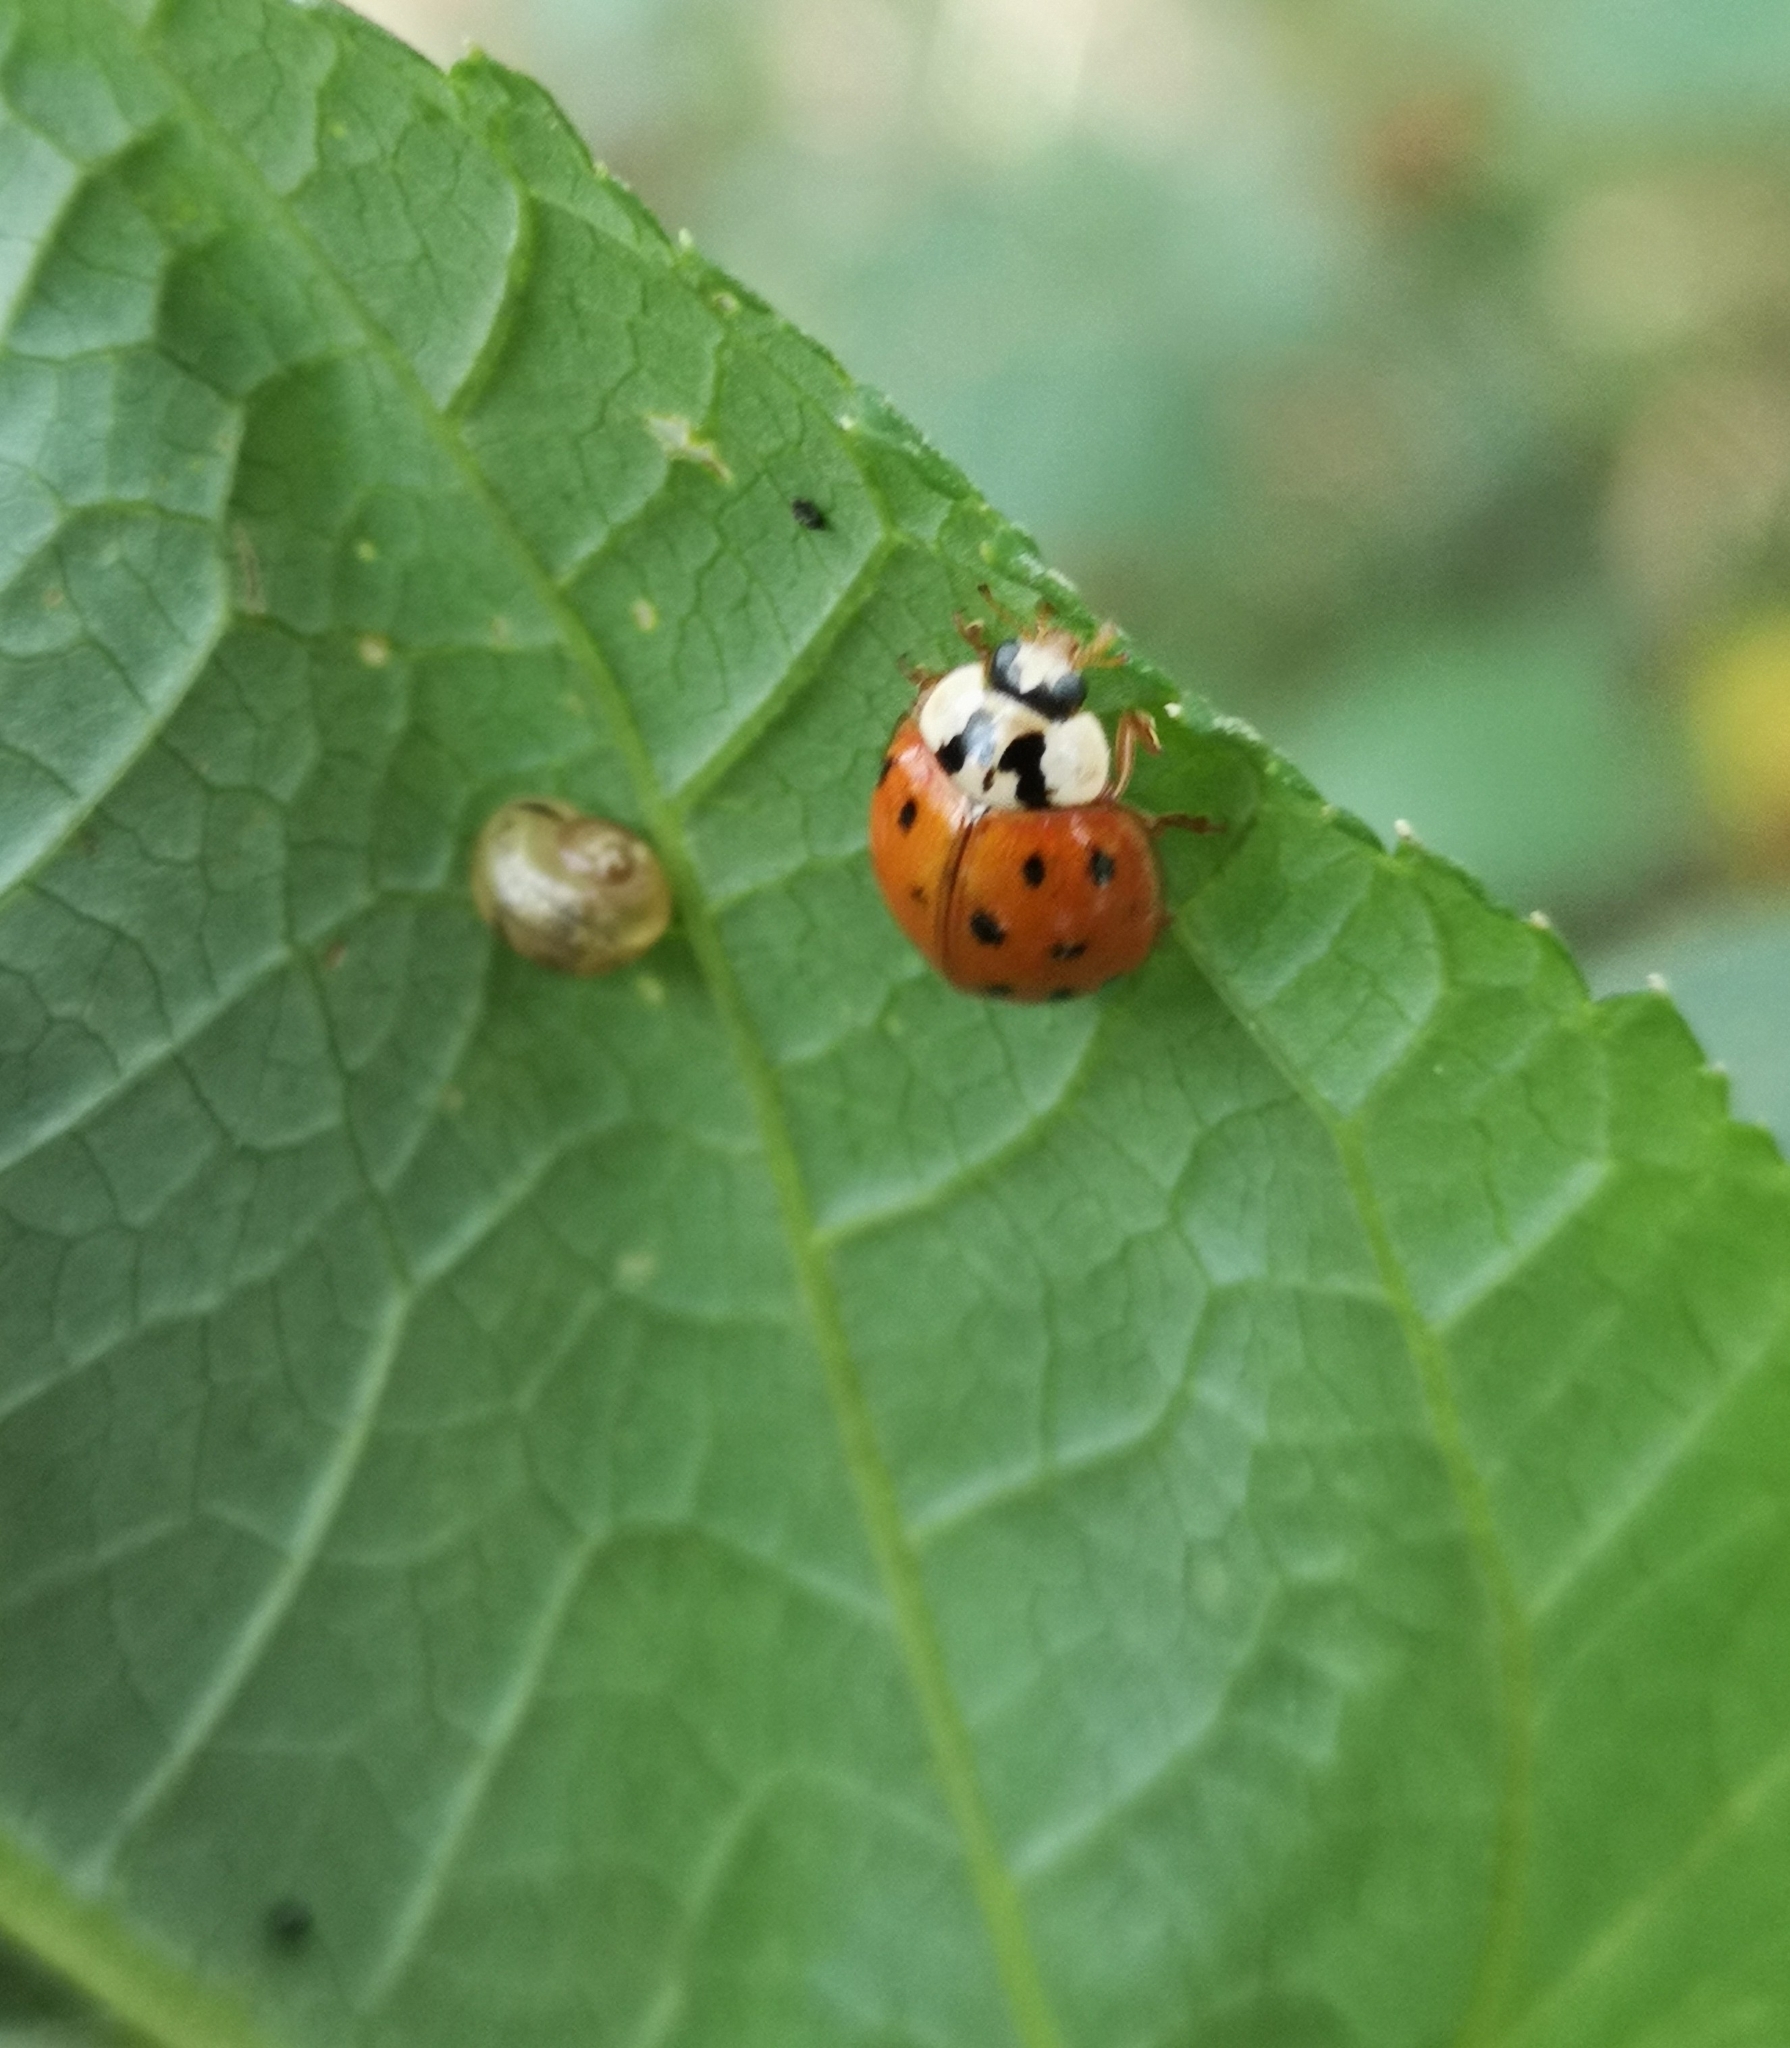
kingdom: Animalia
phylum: Arthropoda
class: Insecta
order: Coleoptera
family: Coccinellidae
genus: Harmonia
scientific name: Harmonia axyridis
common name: Harlequin ladybird
